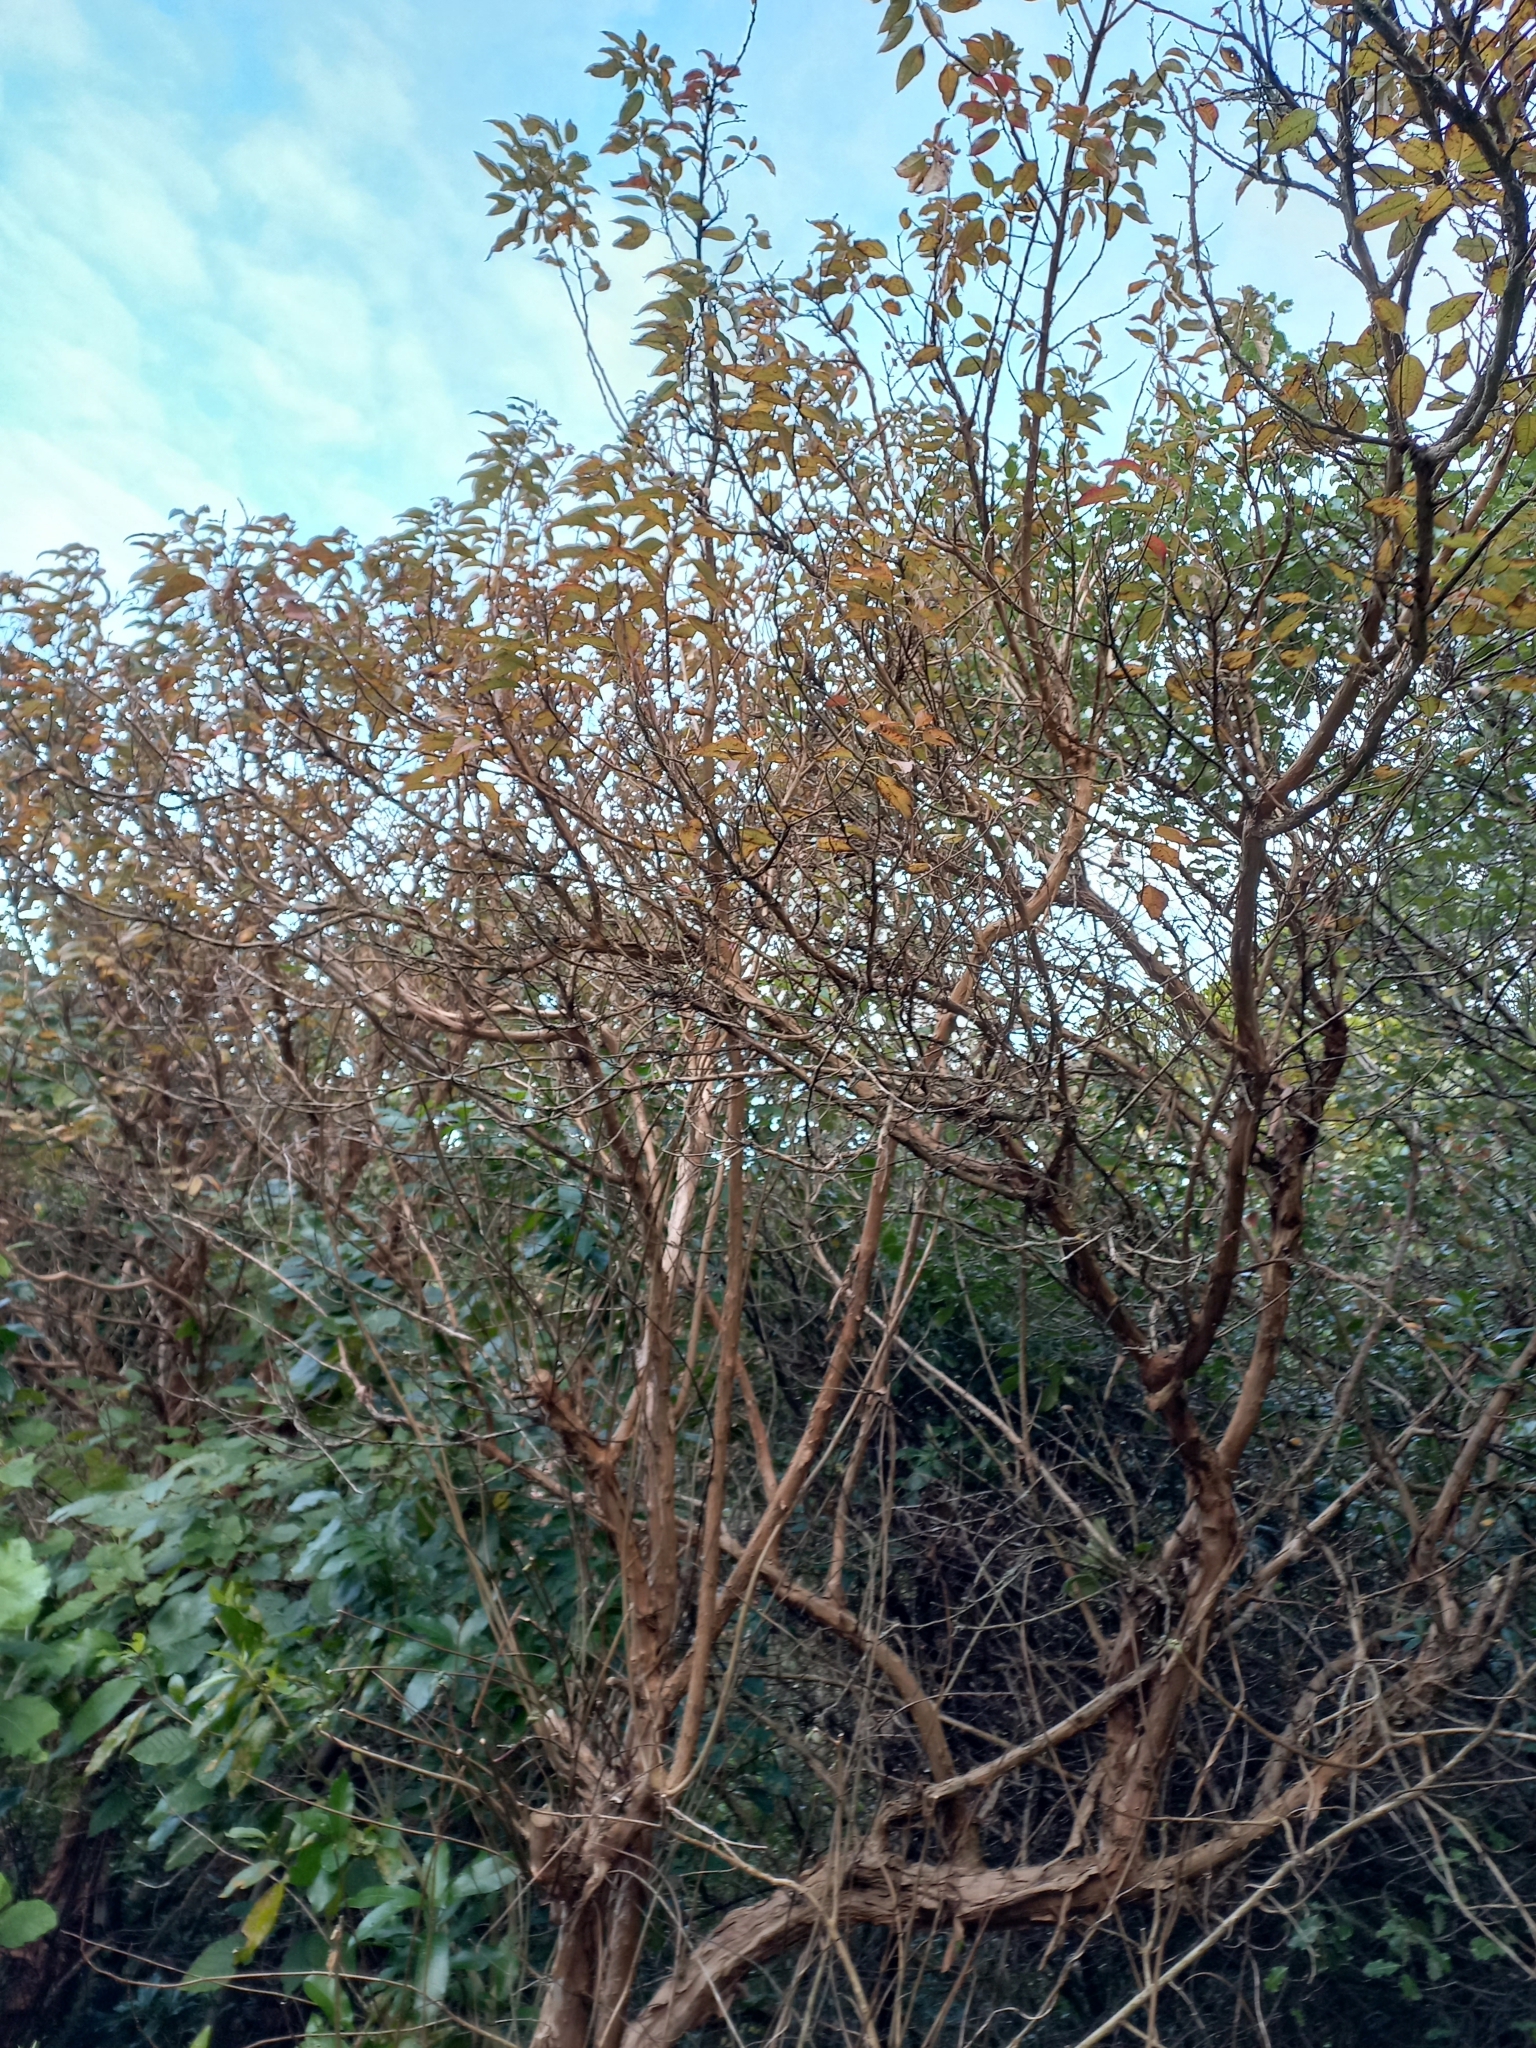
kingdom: Plantae
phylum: Tracheophyta
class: Magnoliopsida
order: Myrtales
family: Onagraceae
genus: Fuchsia
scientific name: Fuchsia excorticata
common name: Tree fuchsia
